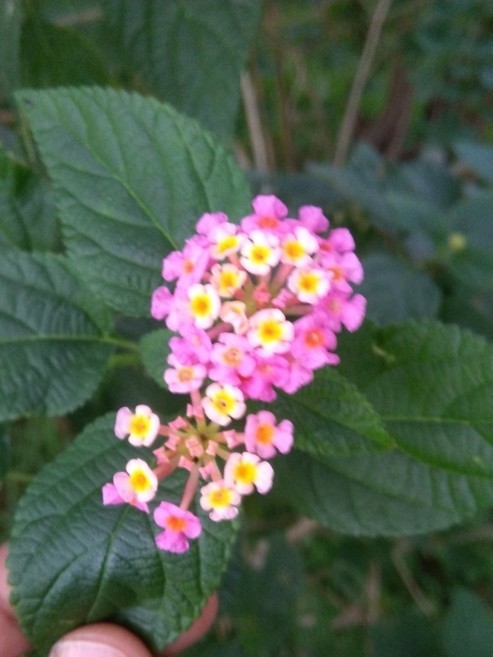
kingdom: Plantae
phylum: Tracheophyta
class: Magnoliopsida
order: Lamiales
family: Verbenaceae
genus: Lantana
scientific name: Lantana camara
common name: Lantana
